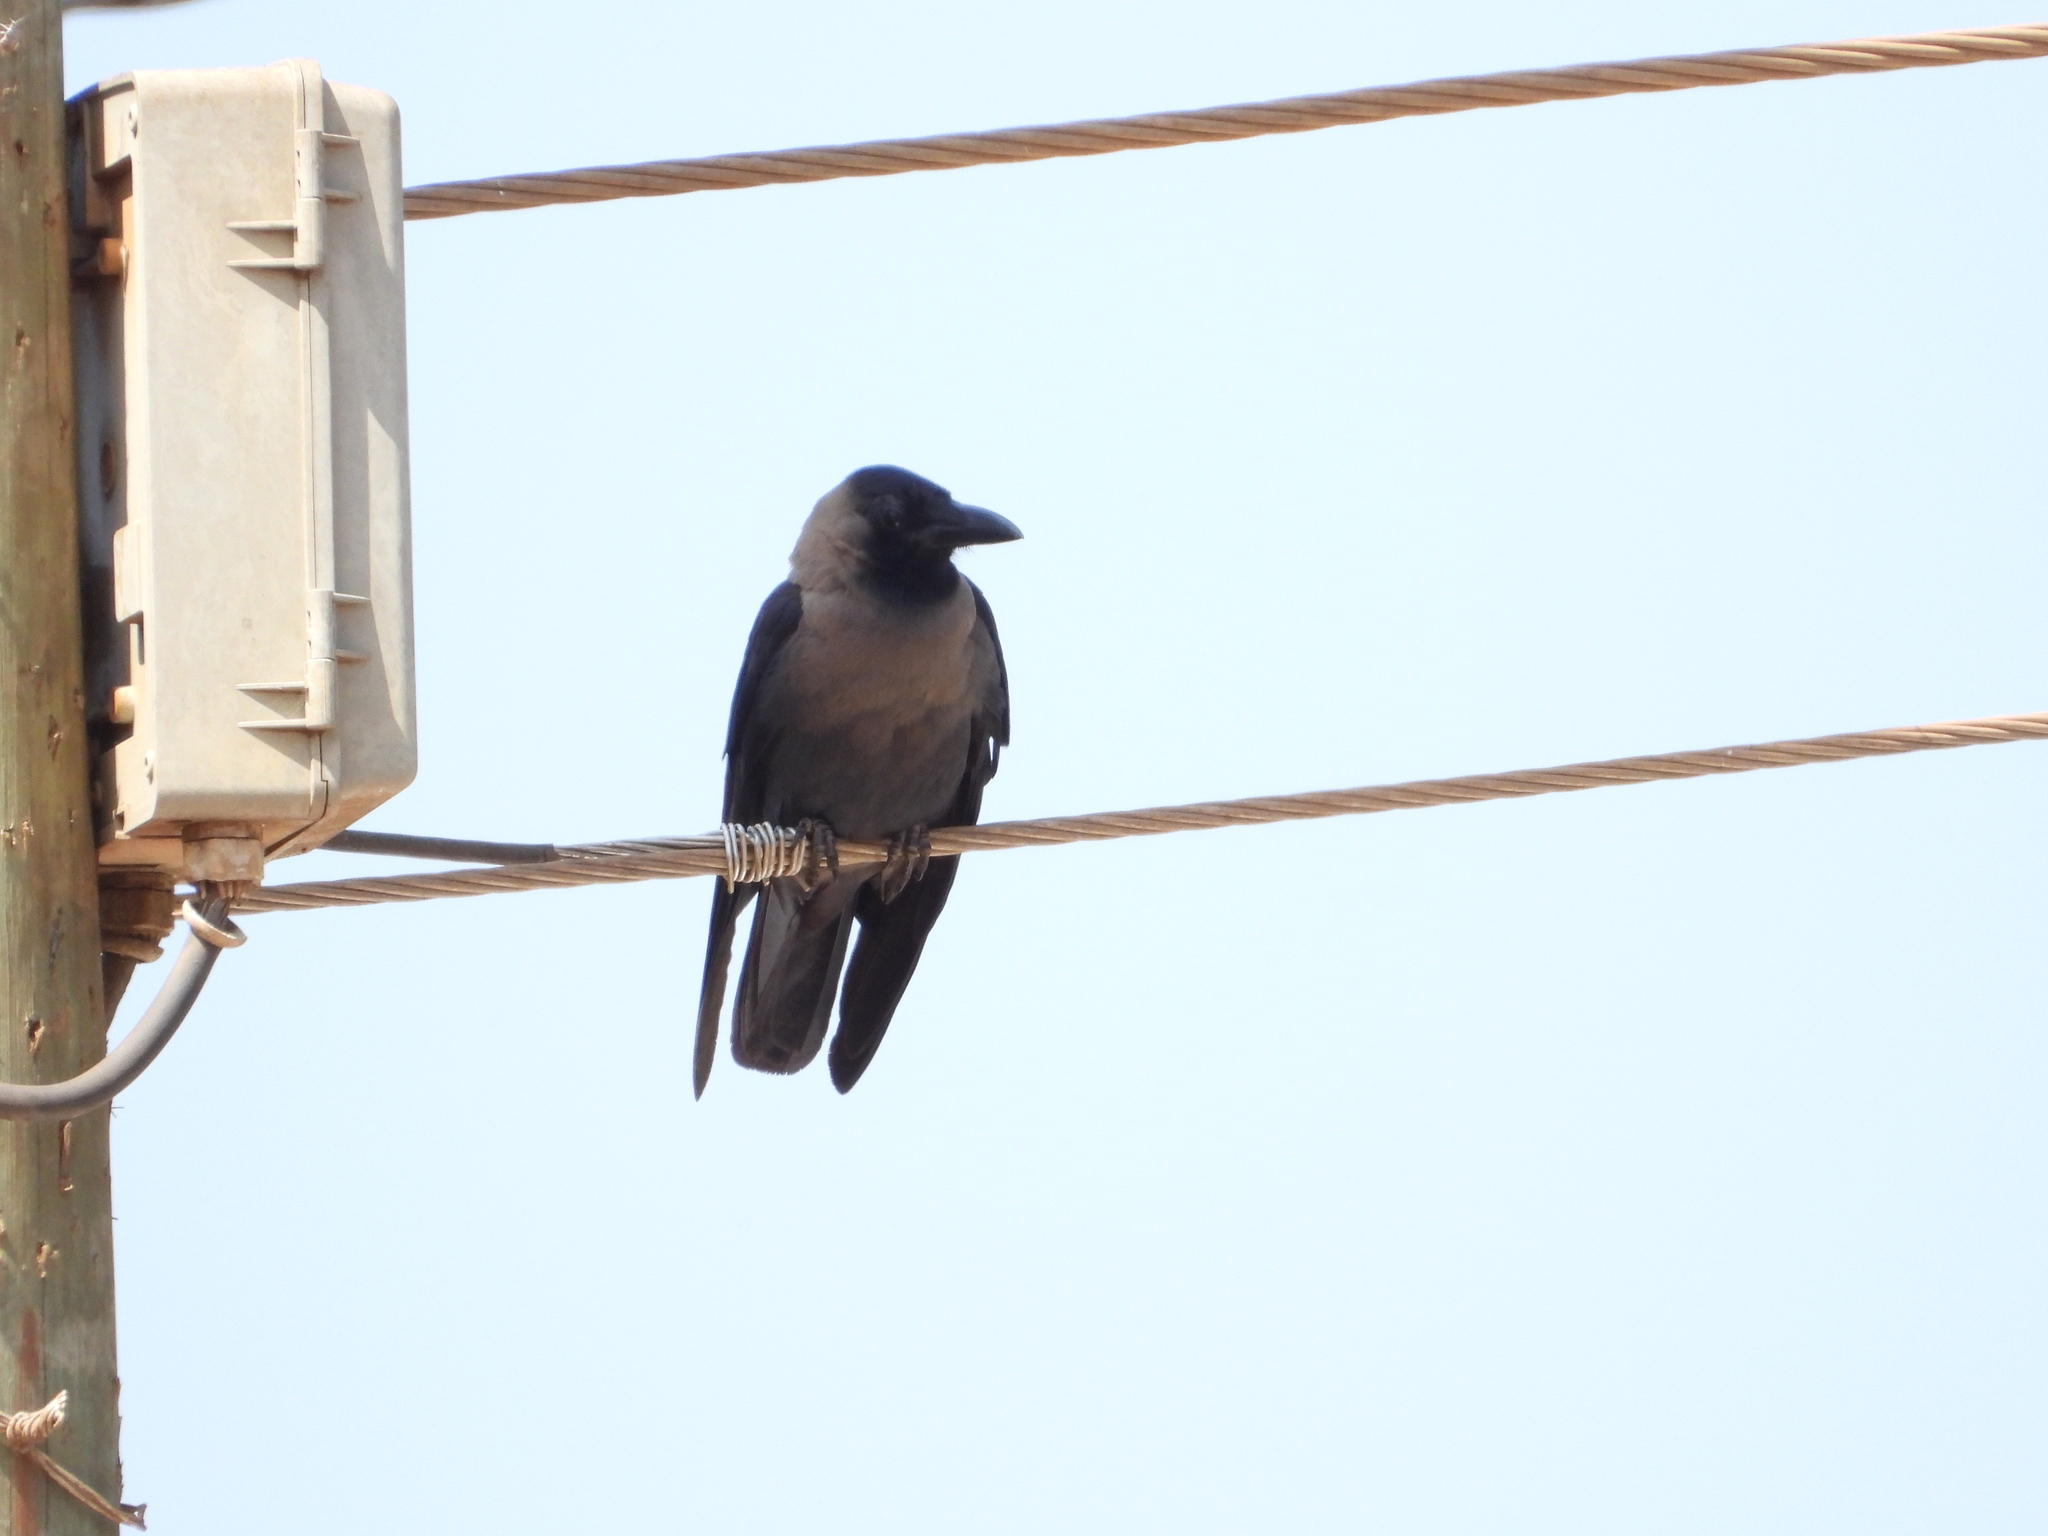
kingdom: Animalia
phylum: Chordata
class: Aves
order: Passeriformes
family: Corvidae
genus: Corvus
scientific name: Corvus splendens
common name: House crow
